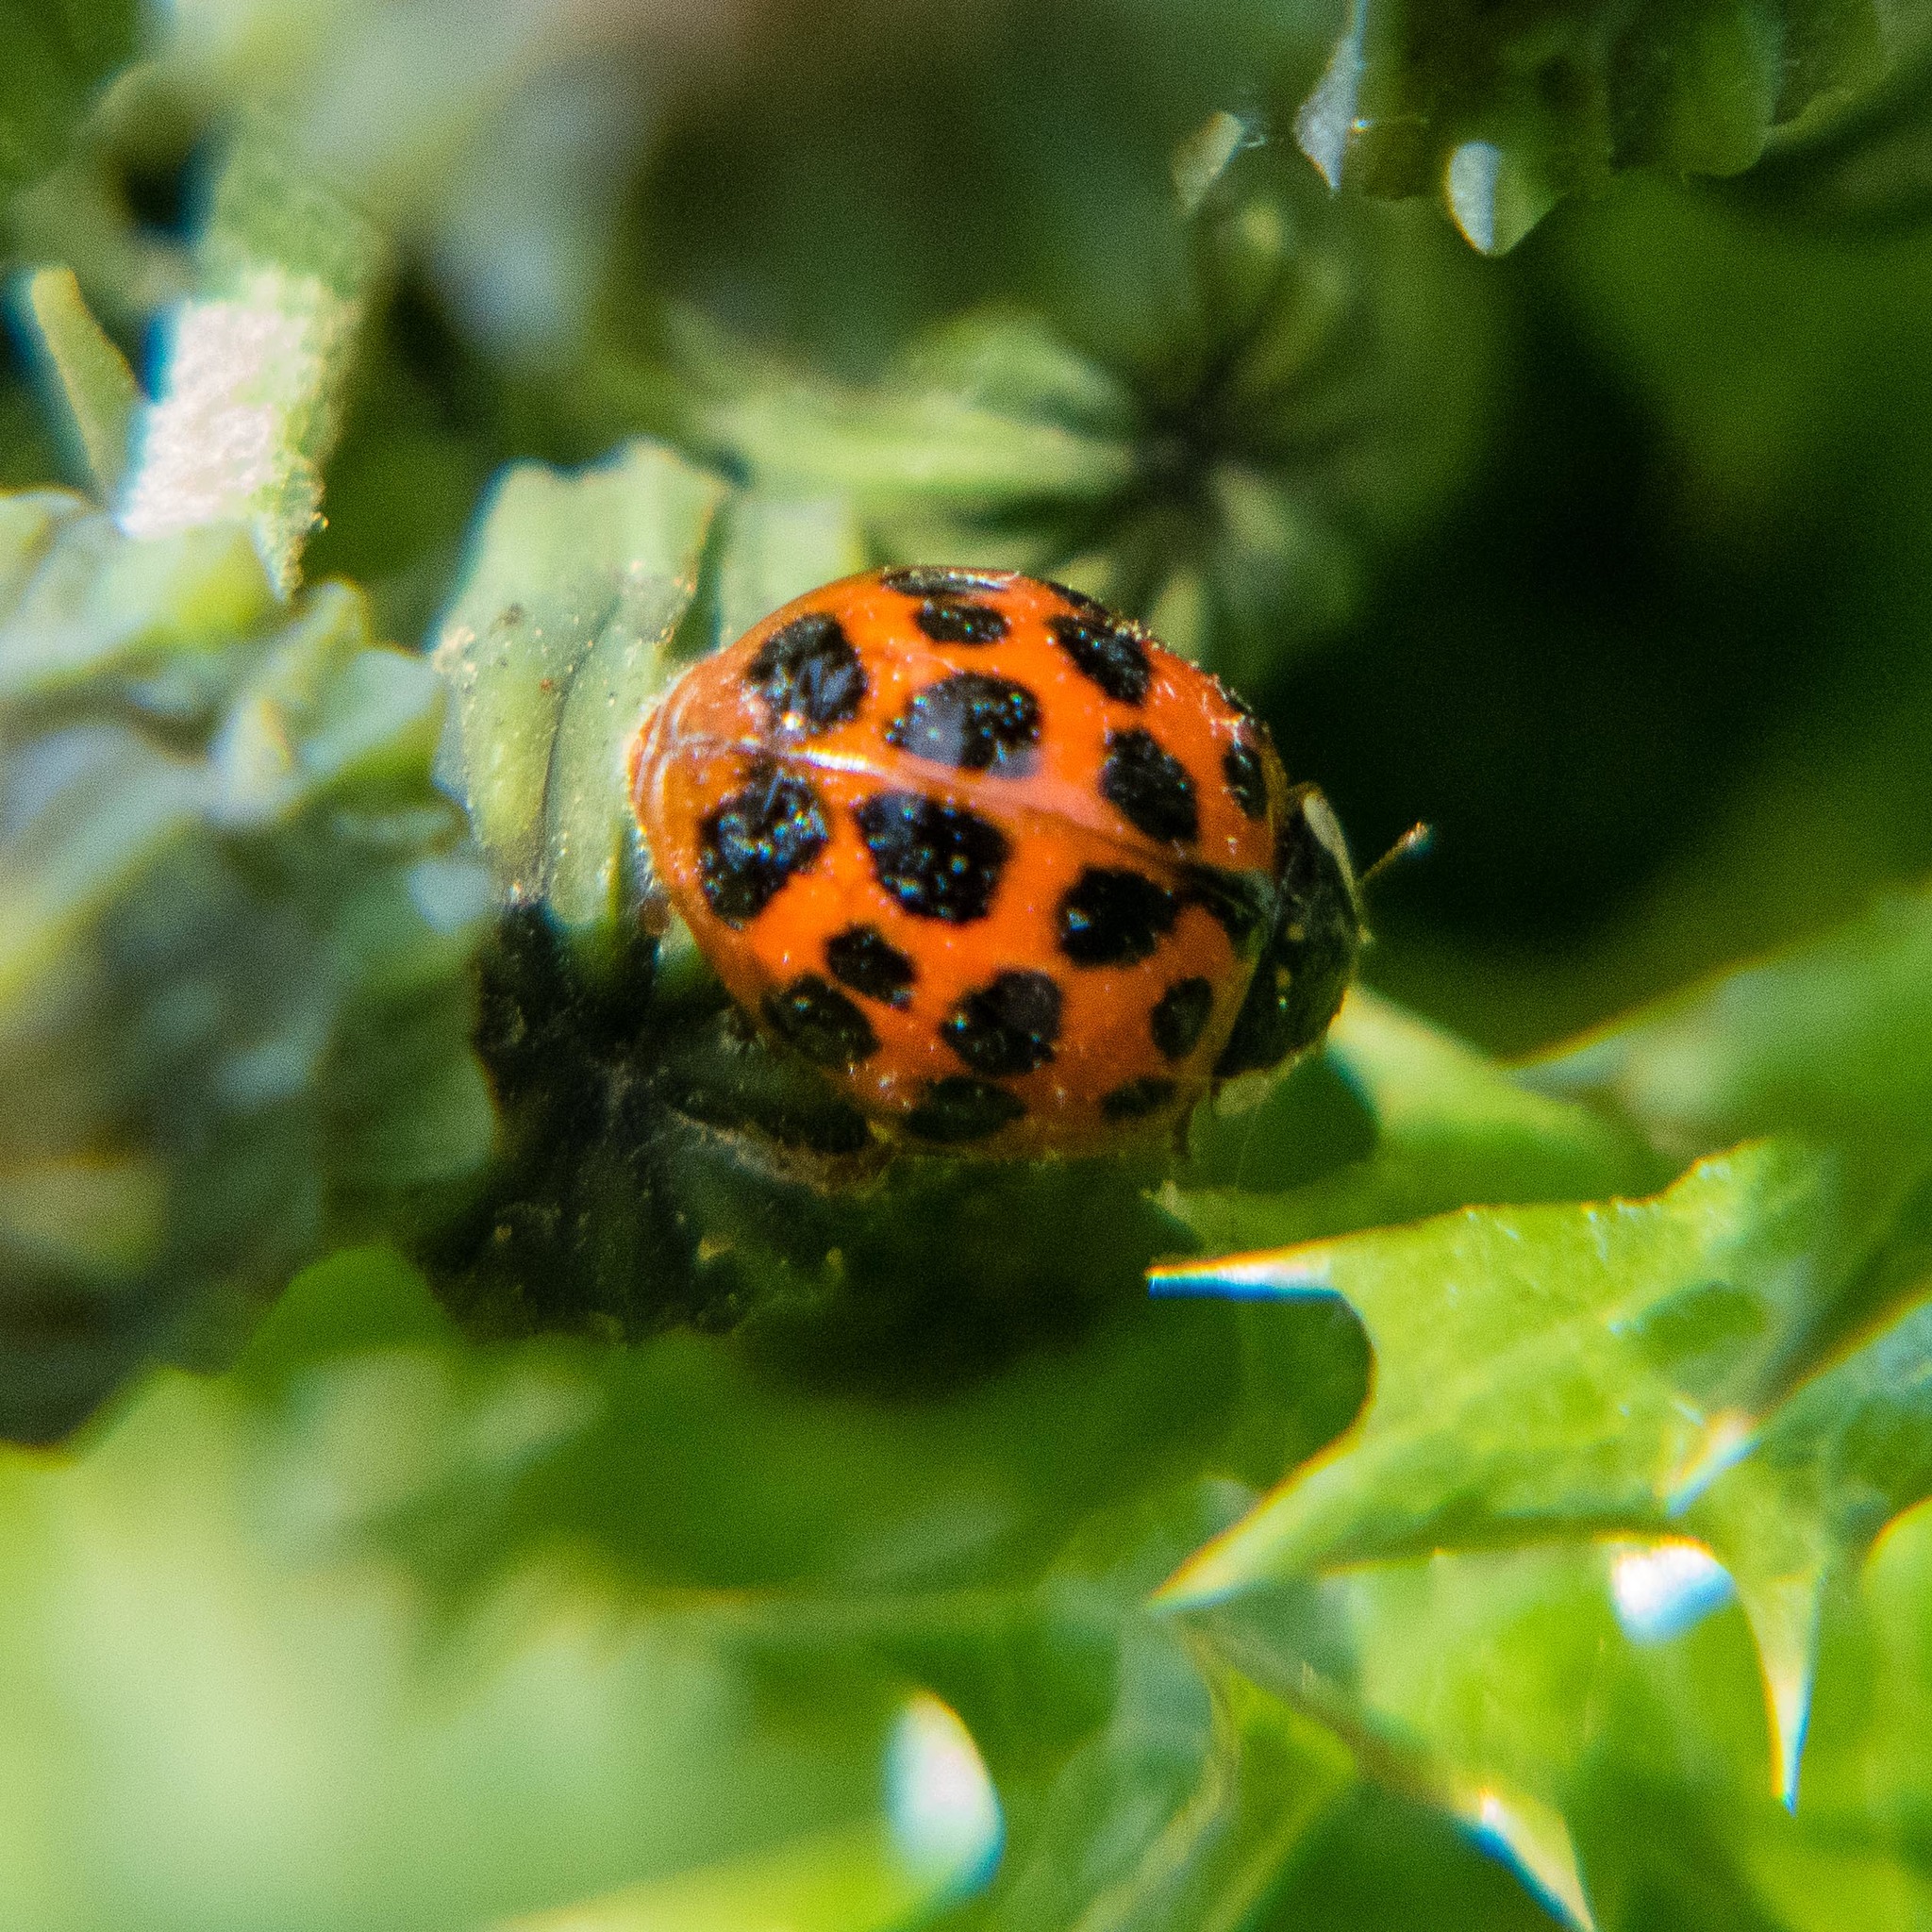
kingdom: Animalia
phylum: Arthropoda
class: Insecta
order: Coleoptera
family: Coccinellidae
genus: Harmonia
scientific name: Harmonia axyridis
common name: Harlequin ladybird
